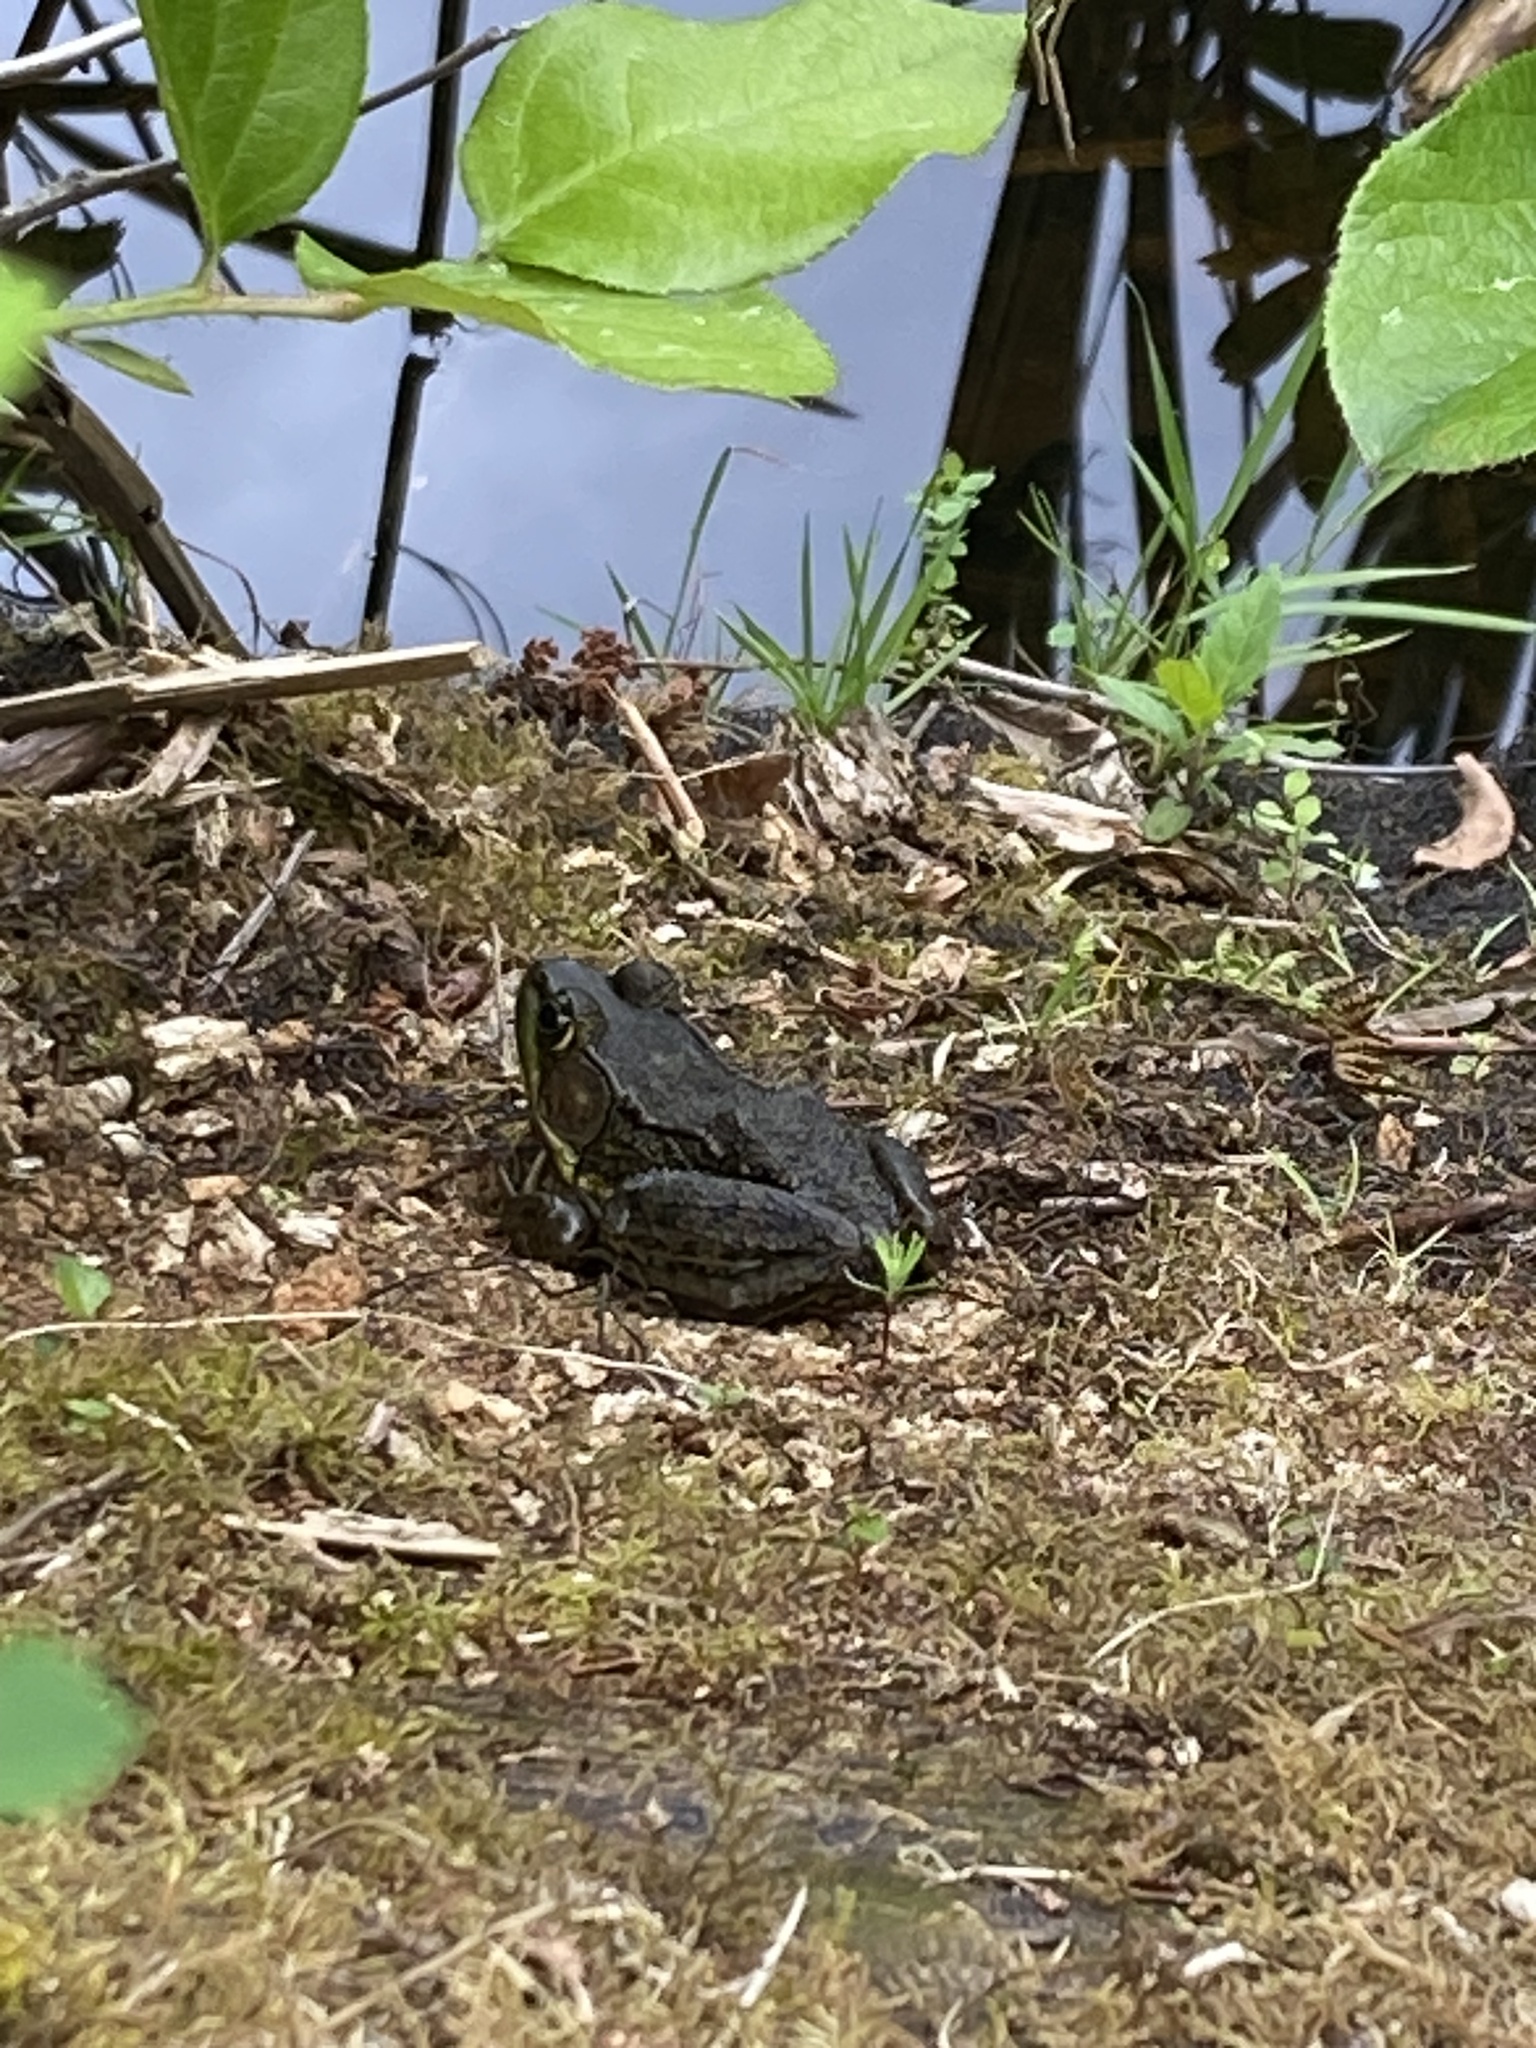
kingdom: Animalia
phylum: Chordata
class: Amphibia
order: Anura
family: Ranidae
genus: Lithobates
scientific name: Lithobates clamitans
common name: Green frog
